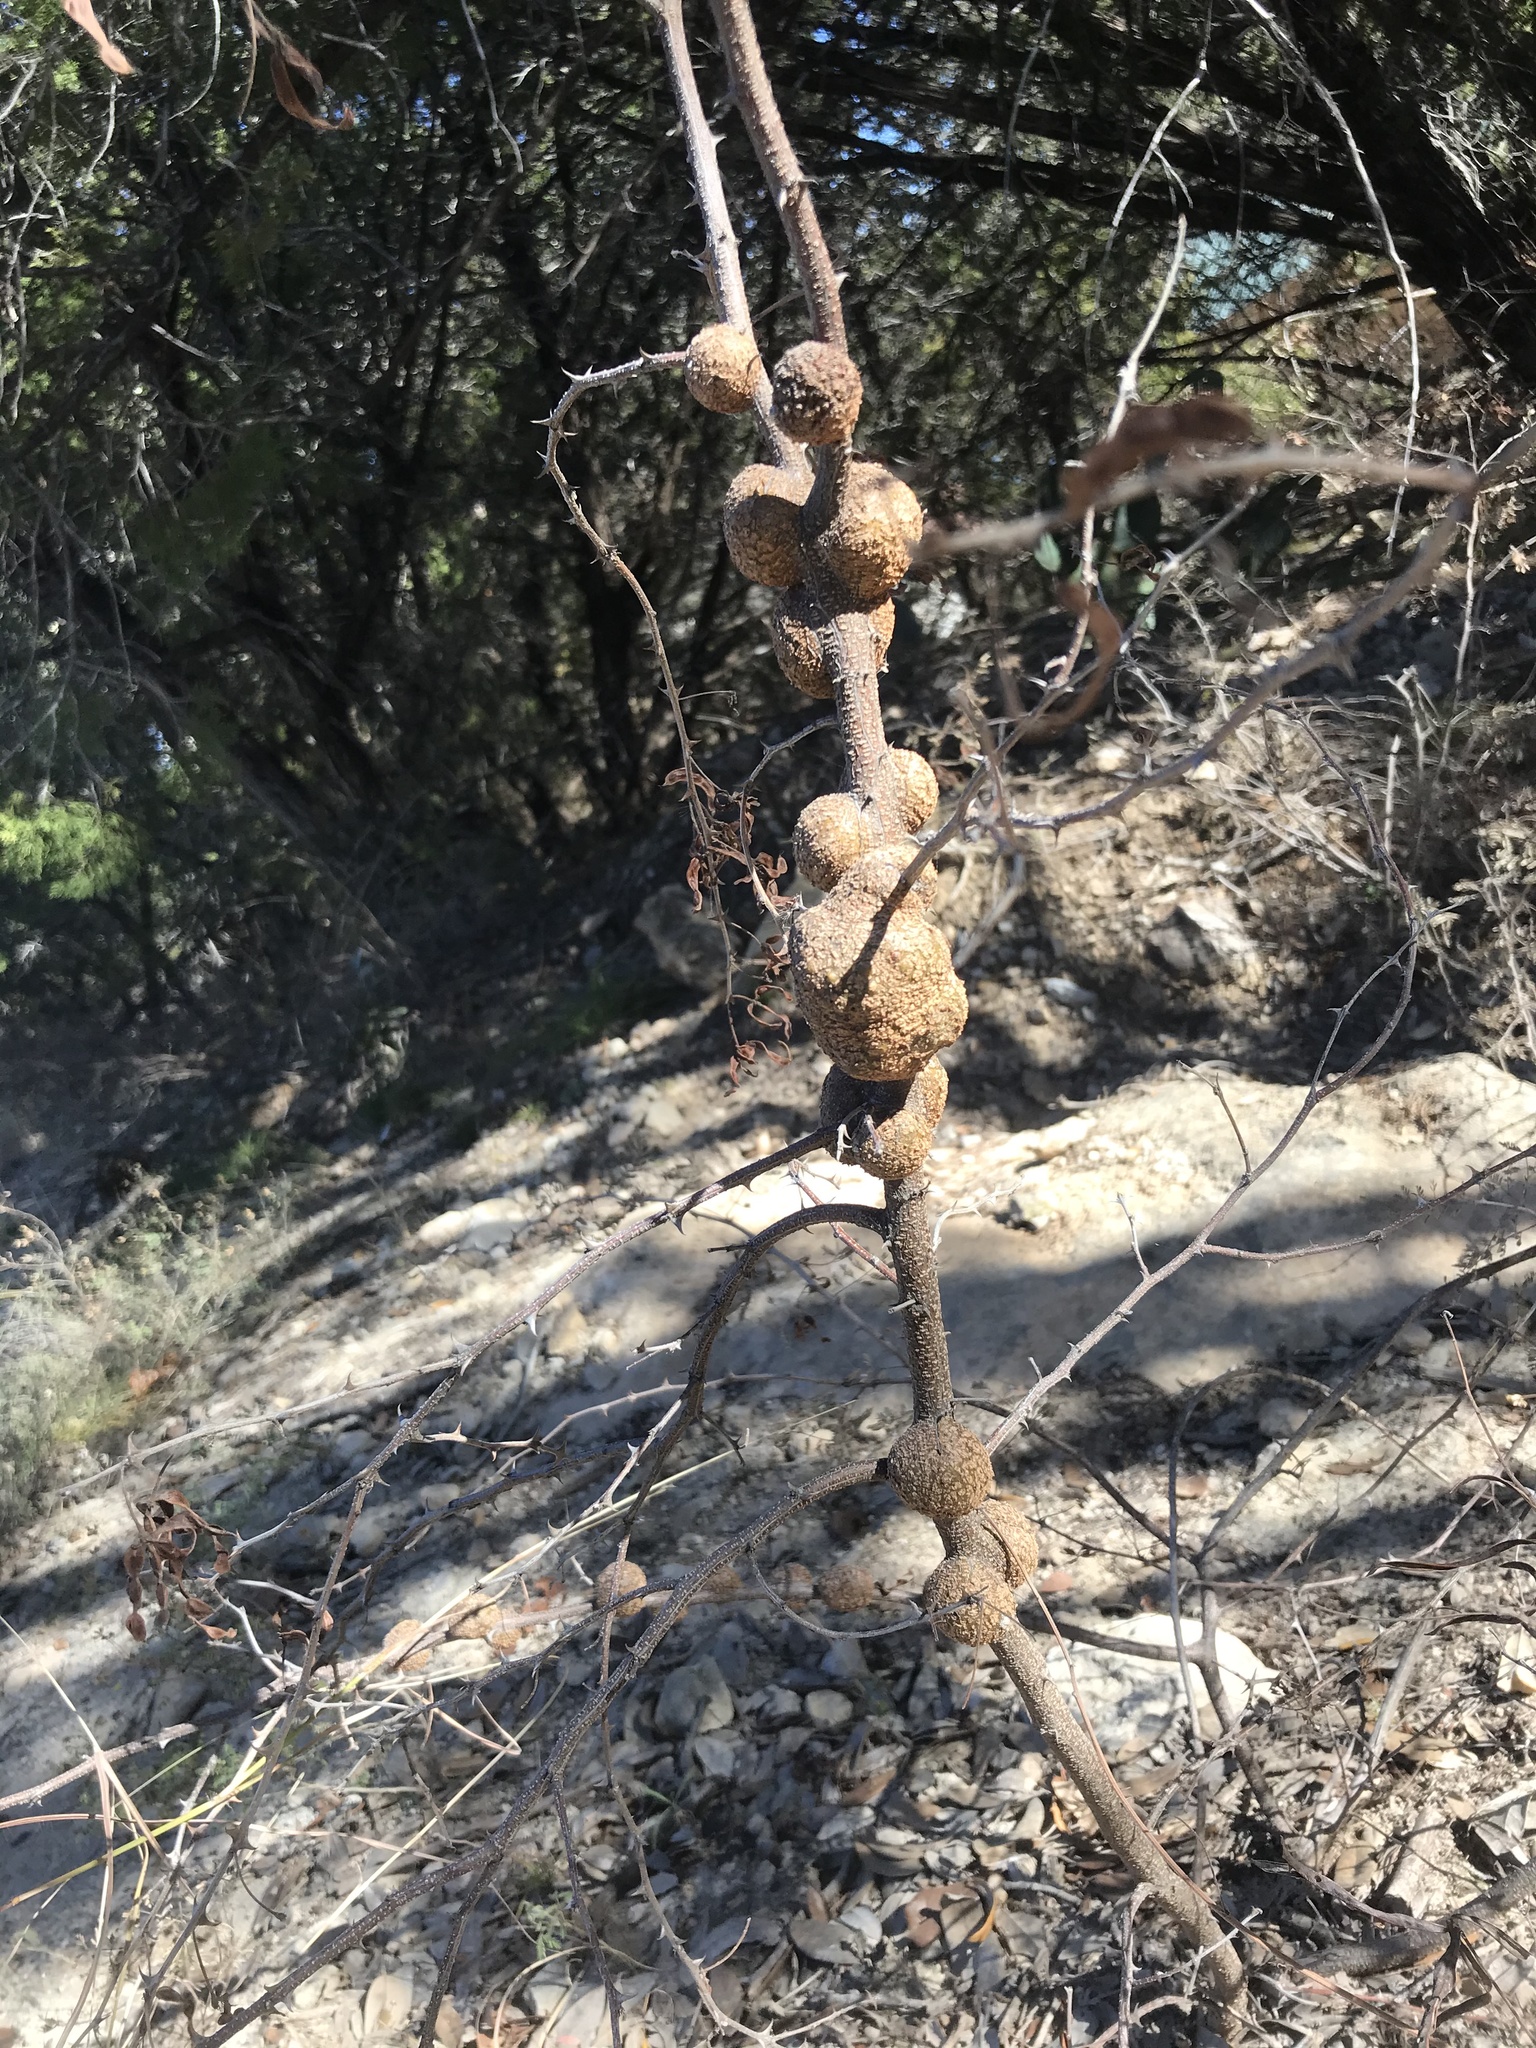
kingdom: Animalia
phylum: Arthropoda
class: Insecta
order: Hymenoptera
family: Tanaostigmatidae
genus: Tanaostigmodes
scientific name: Tanaostigmodes albiclavus
